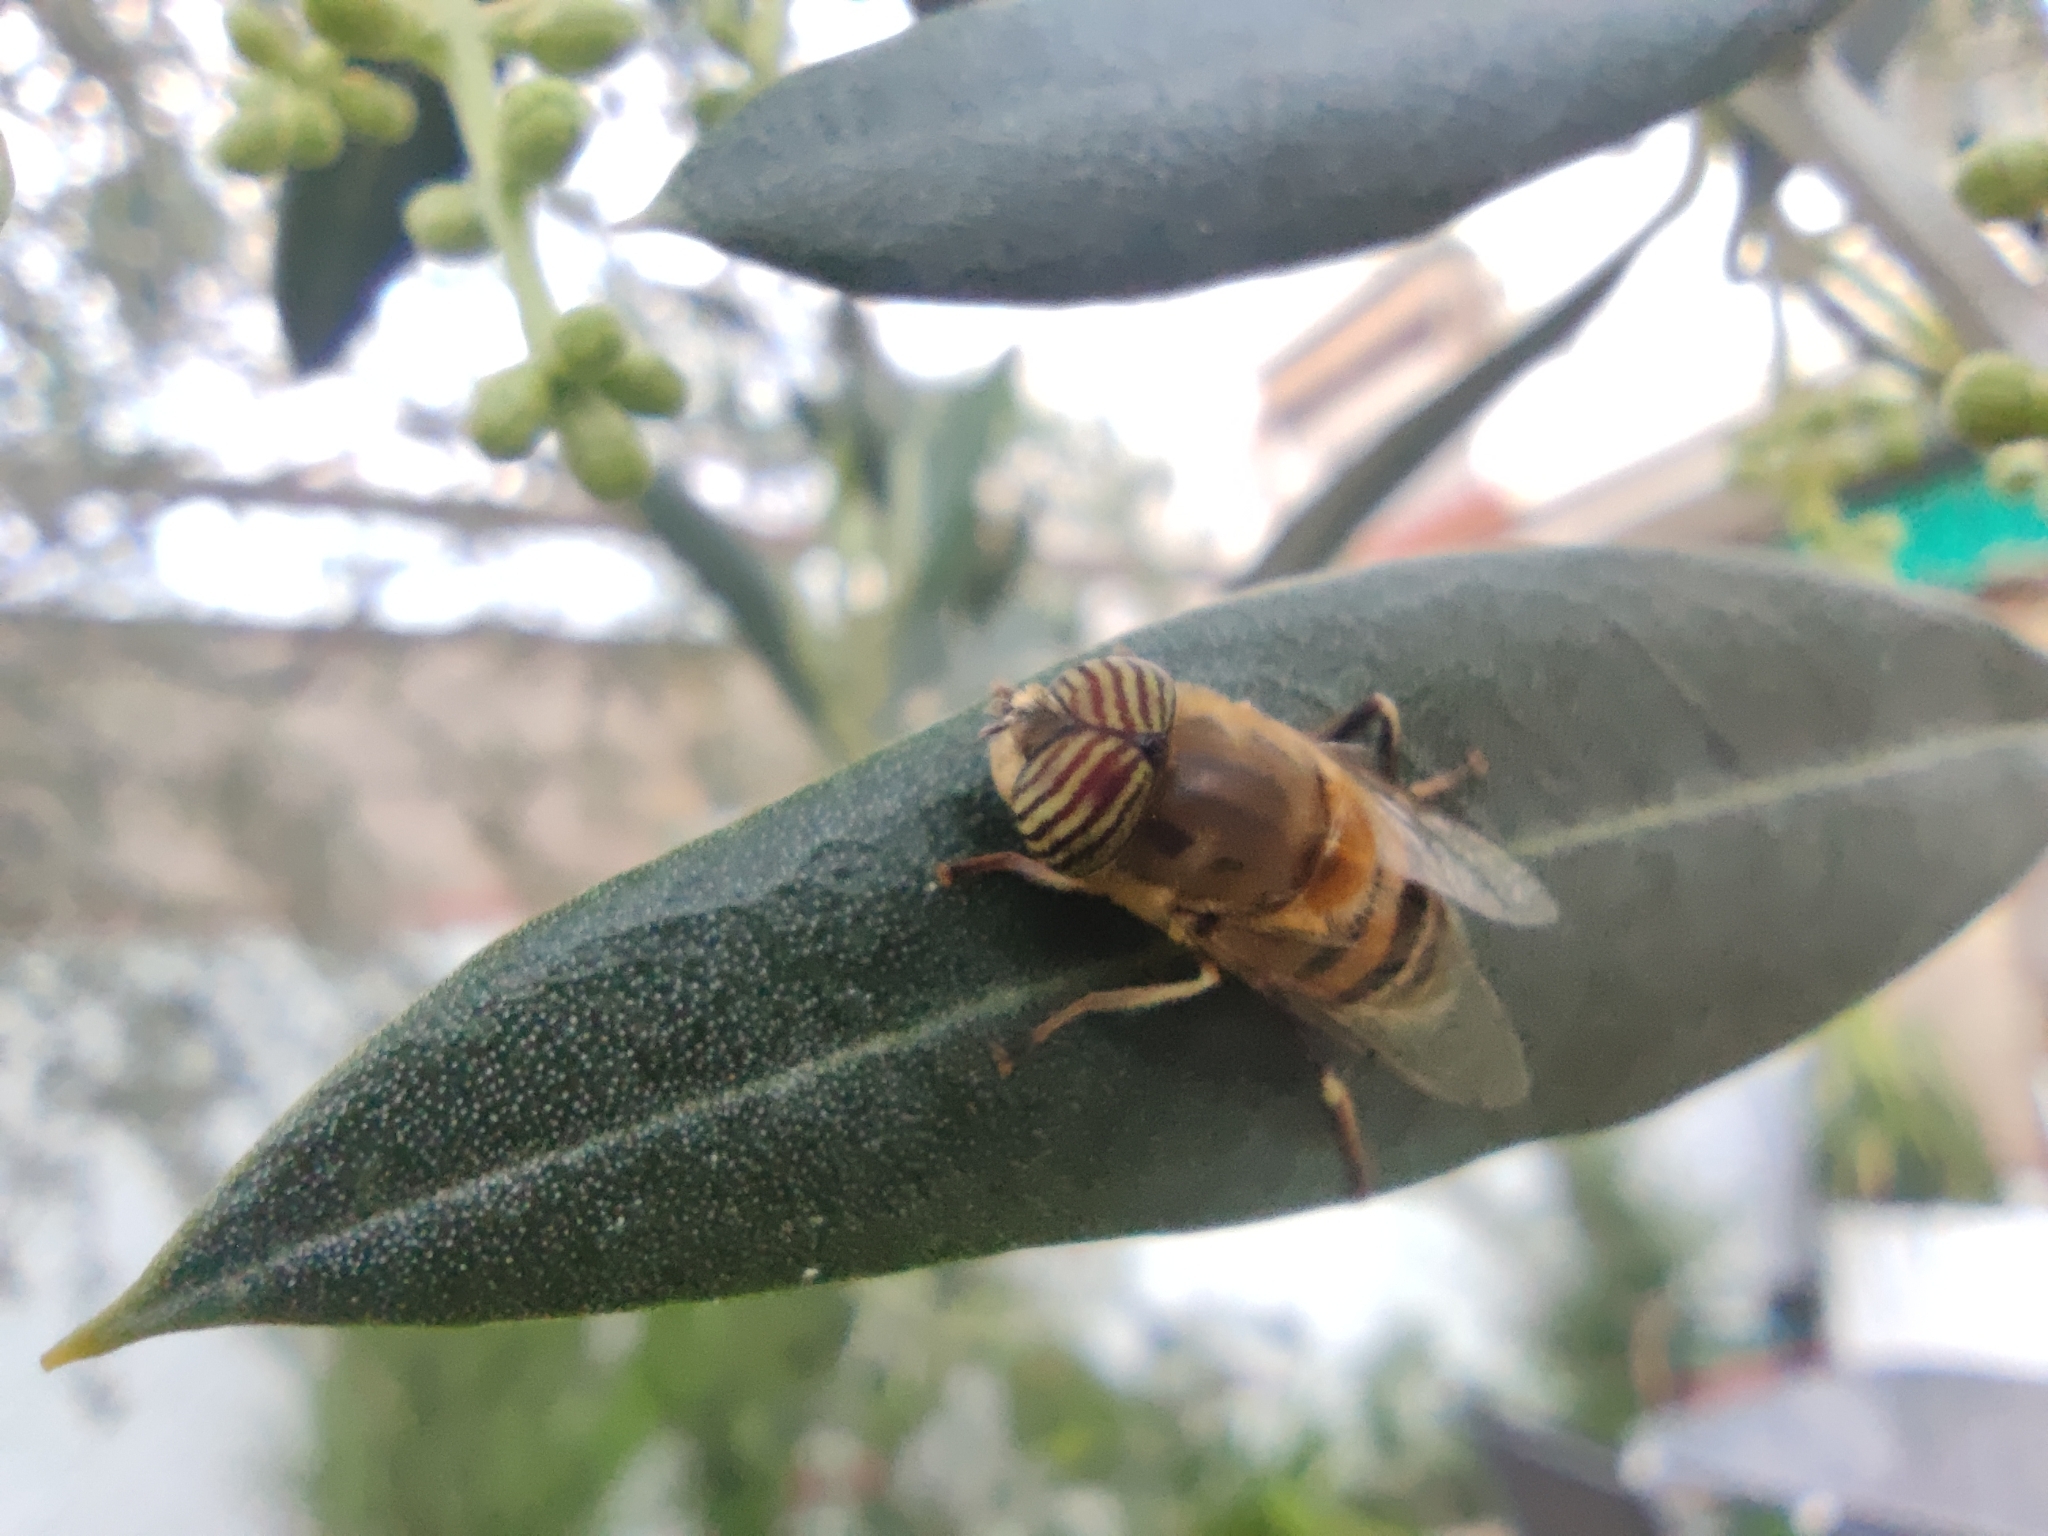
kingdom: Animalia
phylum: Arthropoda
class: Insecta
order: Diptera
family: Syrphidae
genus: Eristalinus
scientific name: Eristalinus taeniops
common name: Syrphid fly
